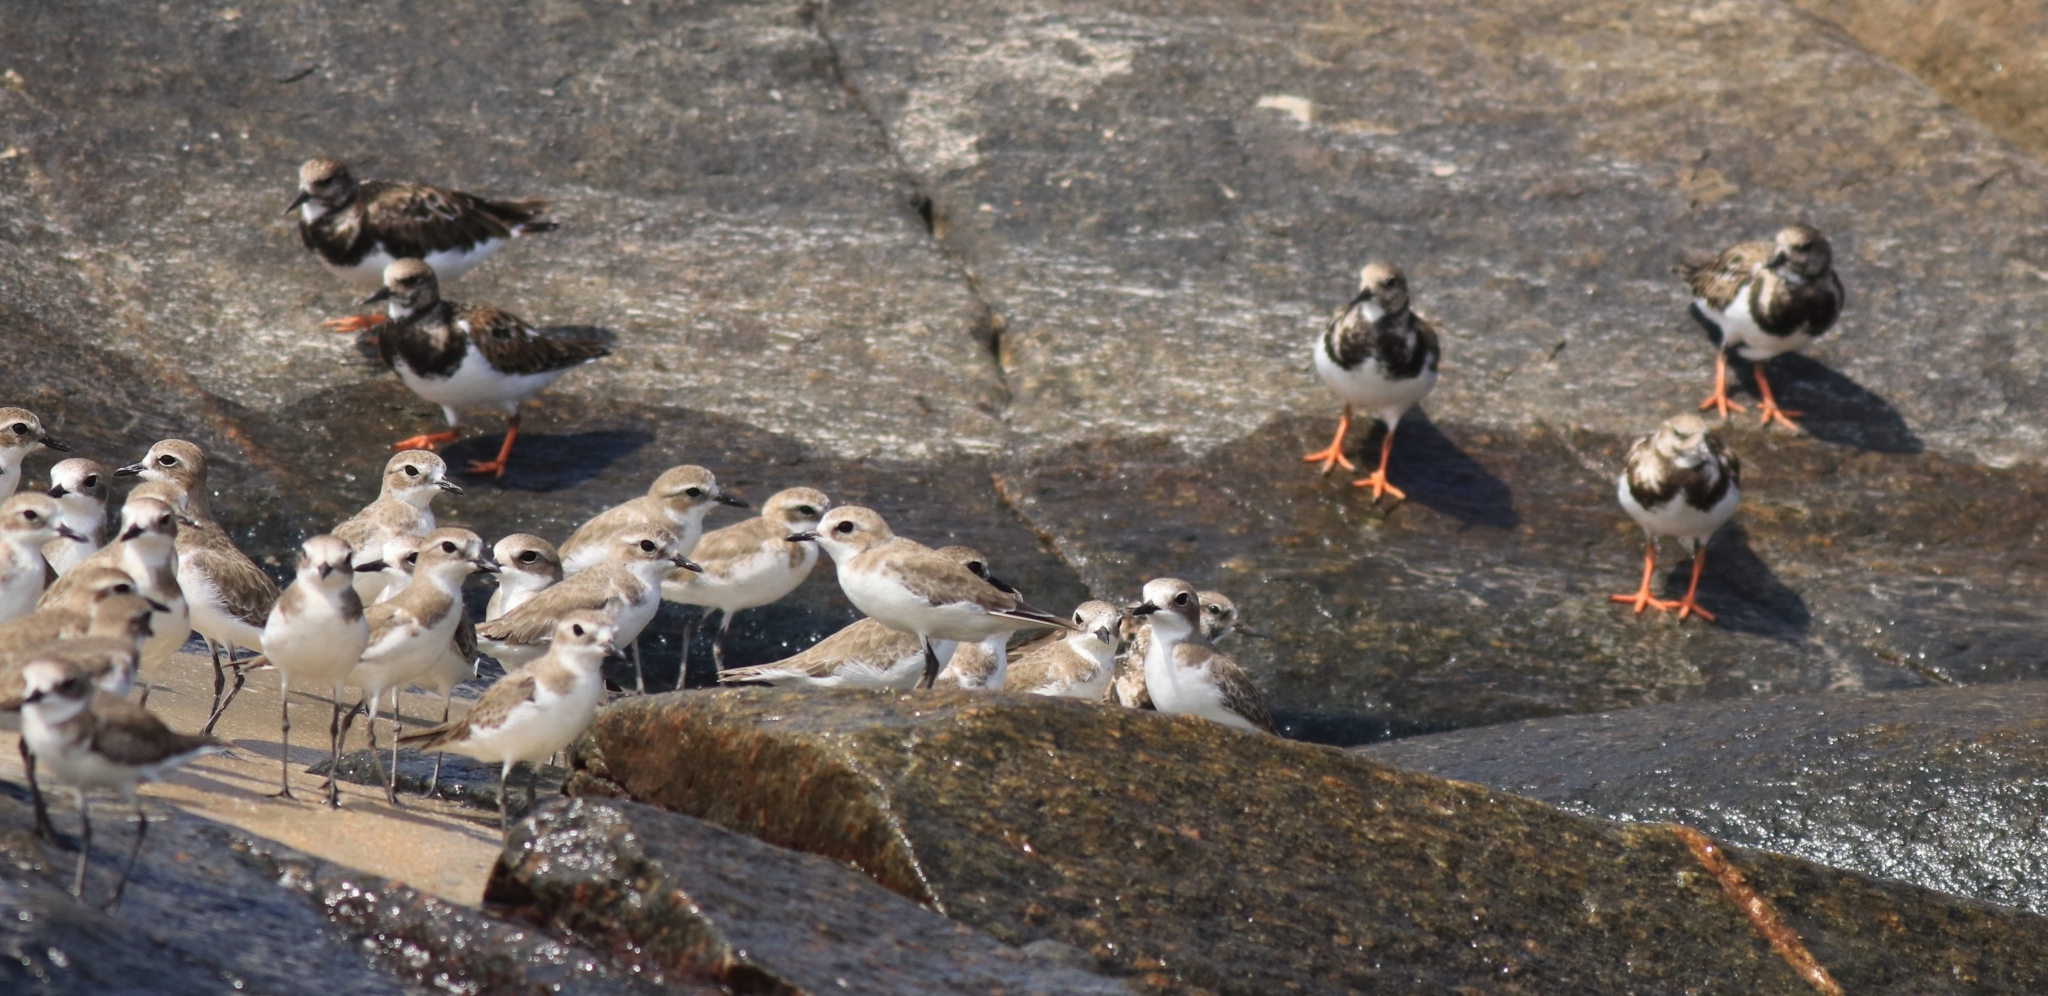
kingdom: Animalia
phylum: Chordata
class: Aves
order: Charadriiformes
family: Scolopacidae
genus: Arenaria
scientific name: Arenaria interpres
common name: Ruddy turnstone
